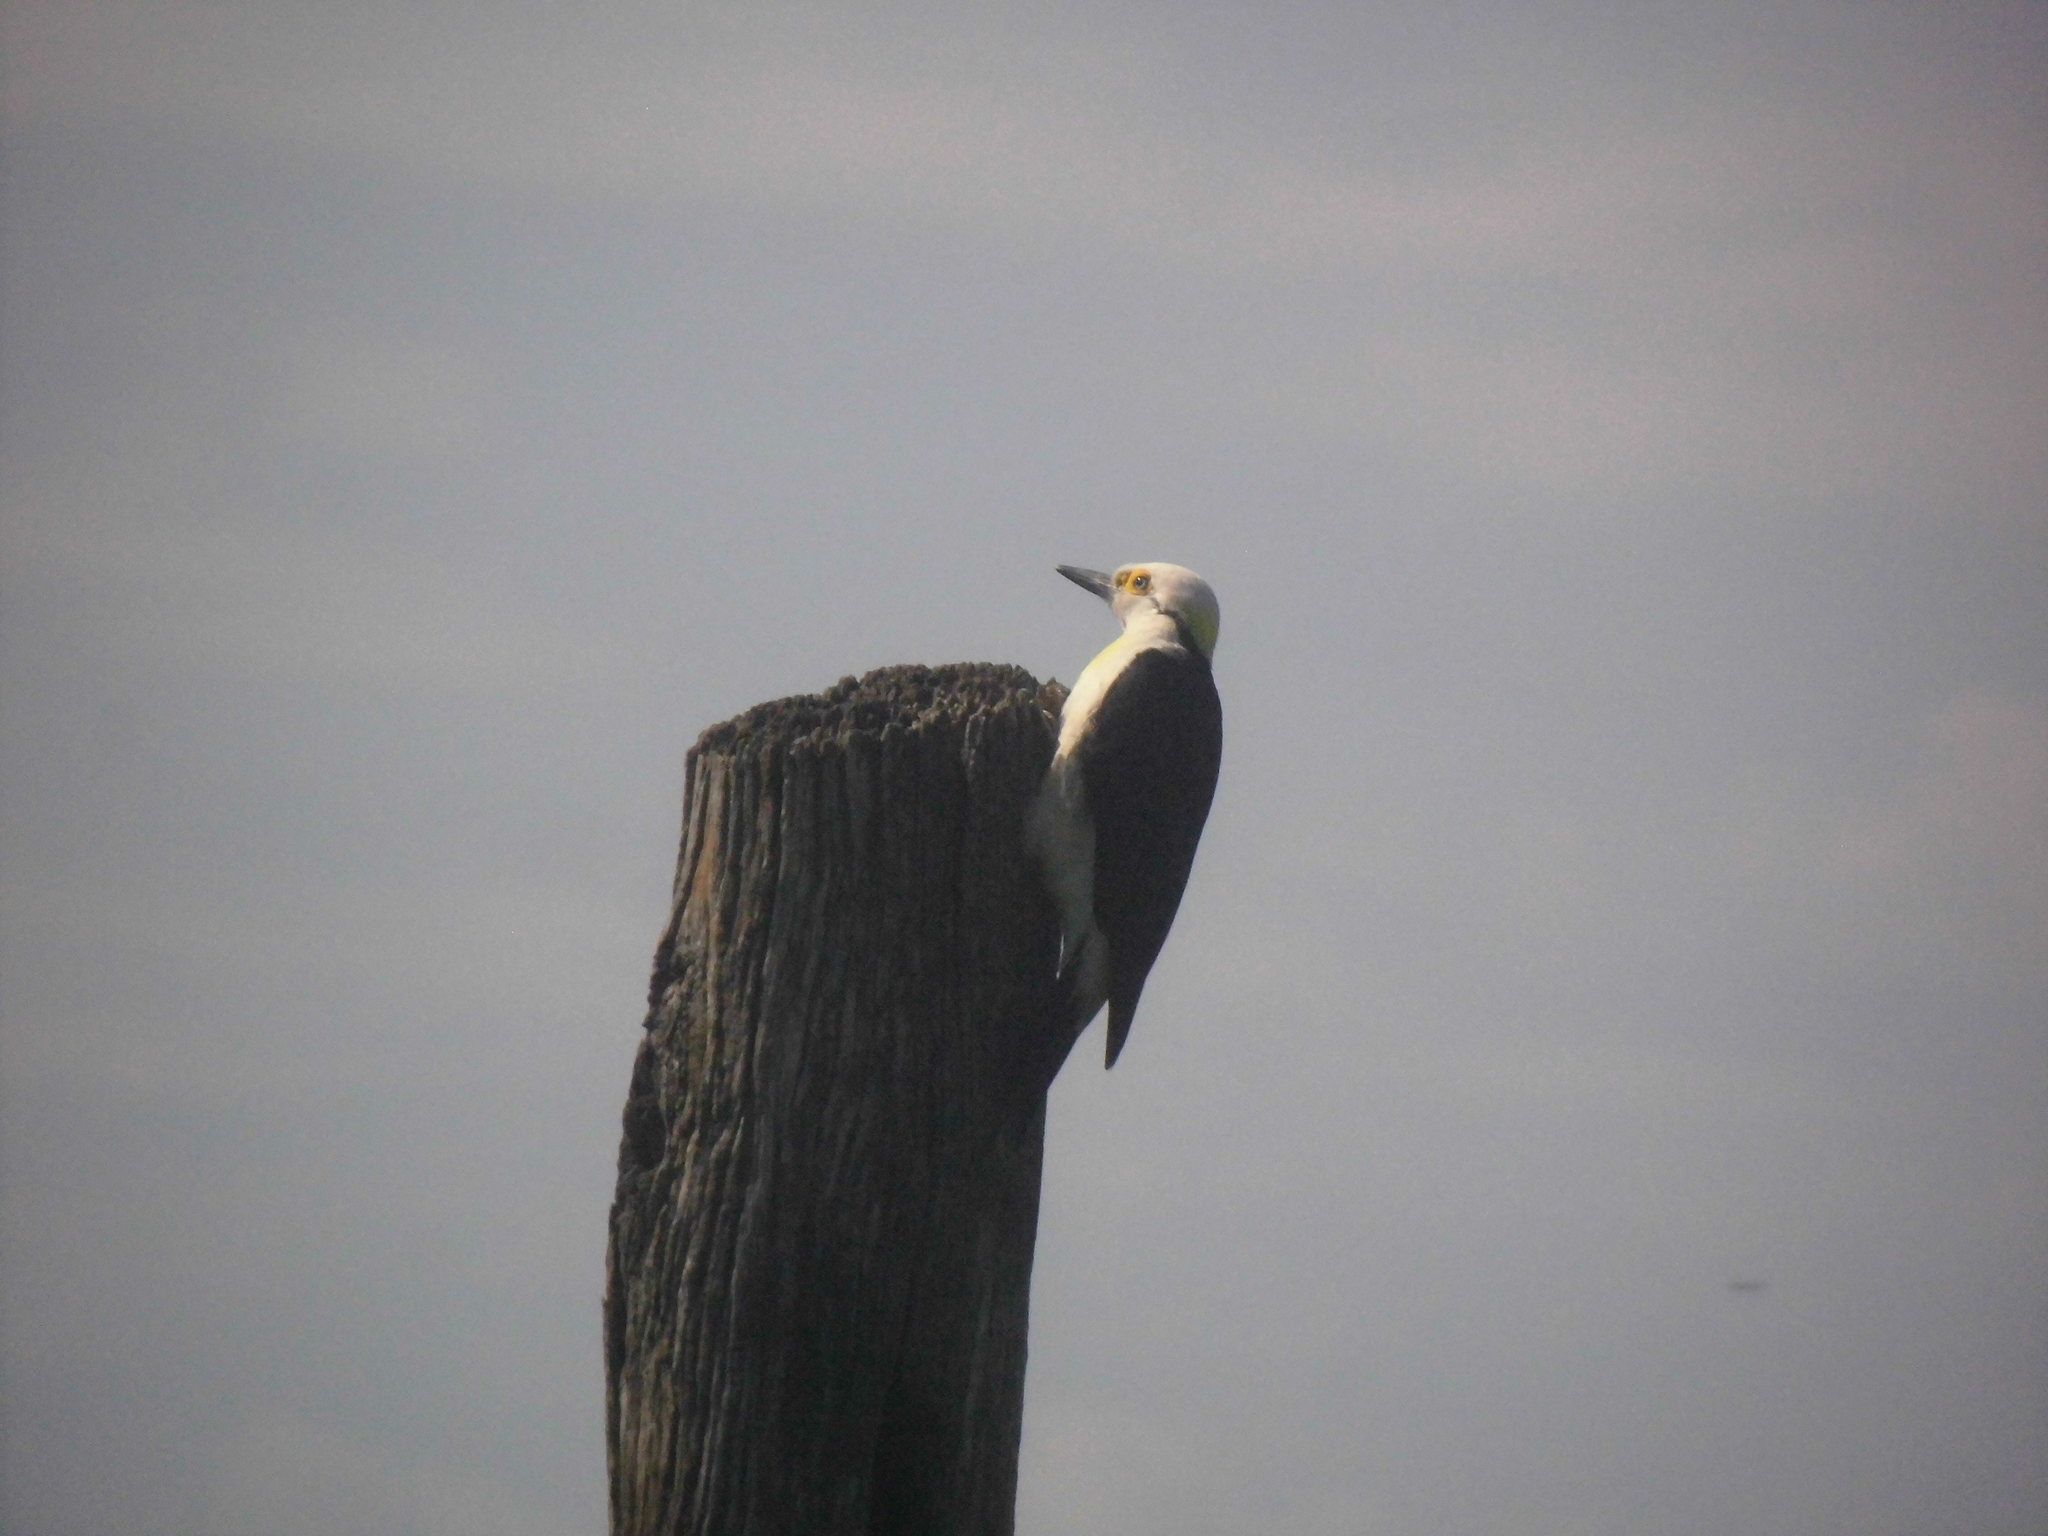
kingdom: Animalia
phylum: Chordata
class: Aves
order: Piciformes
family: Picidae
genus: Melanerpes
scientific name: Melanerpes candidus
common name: White woodpecker
